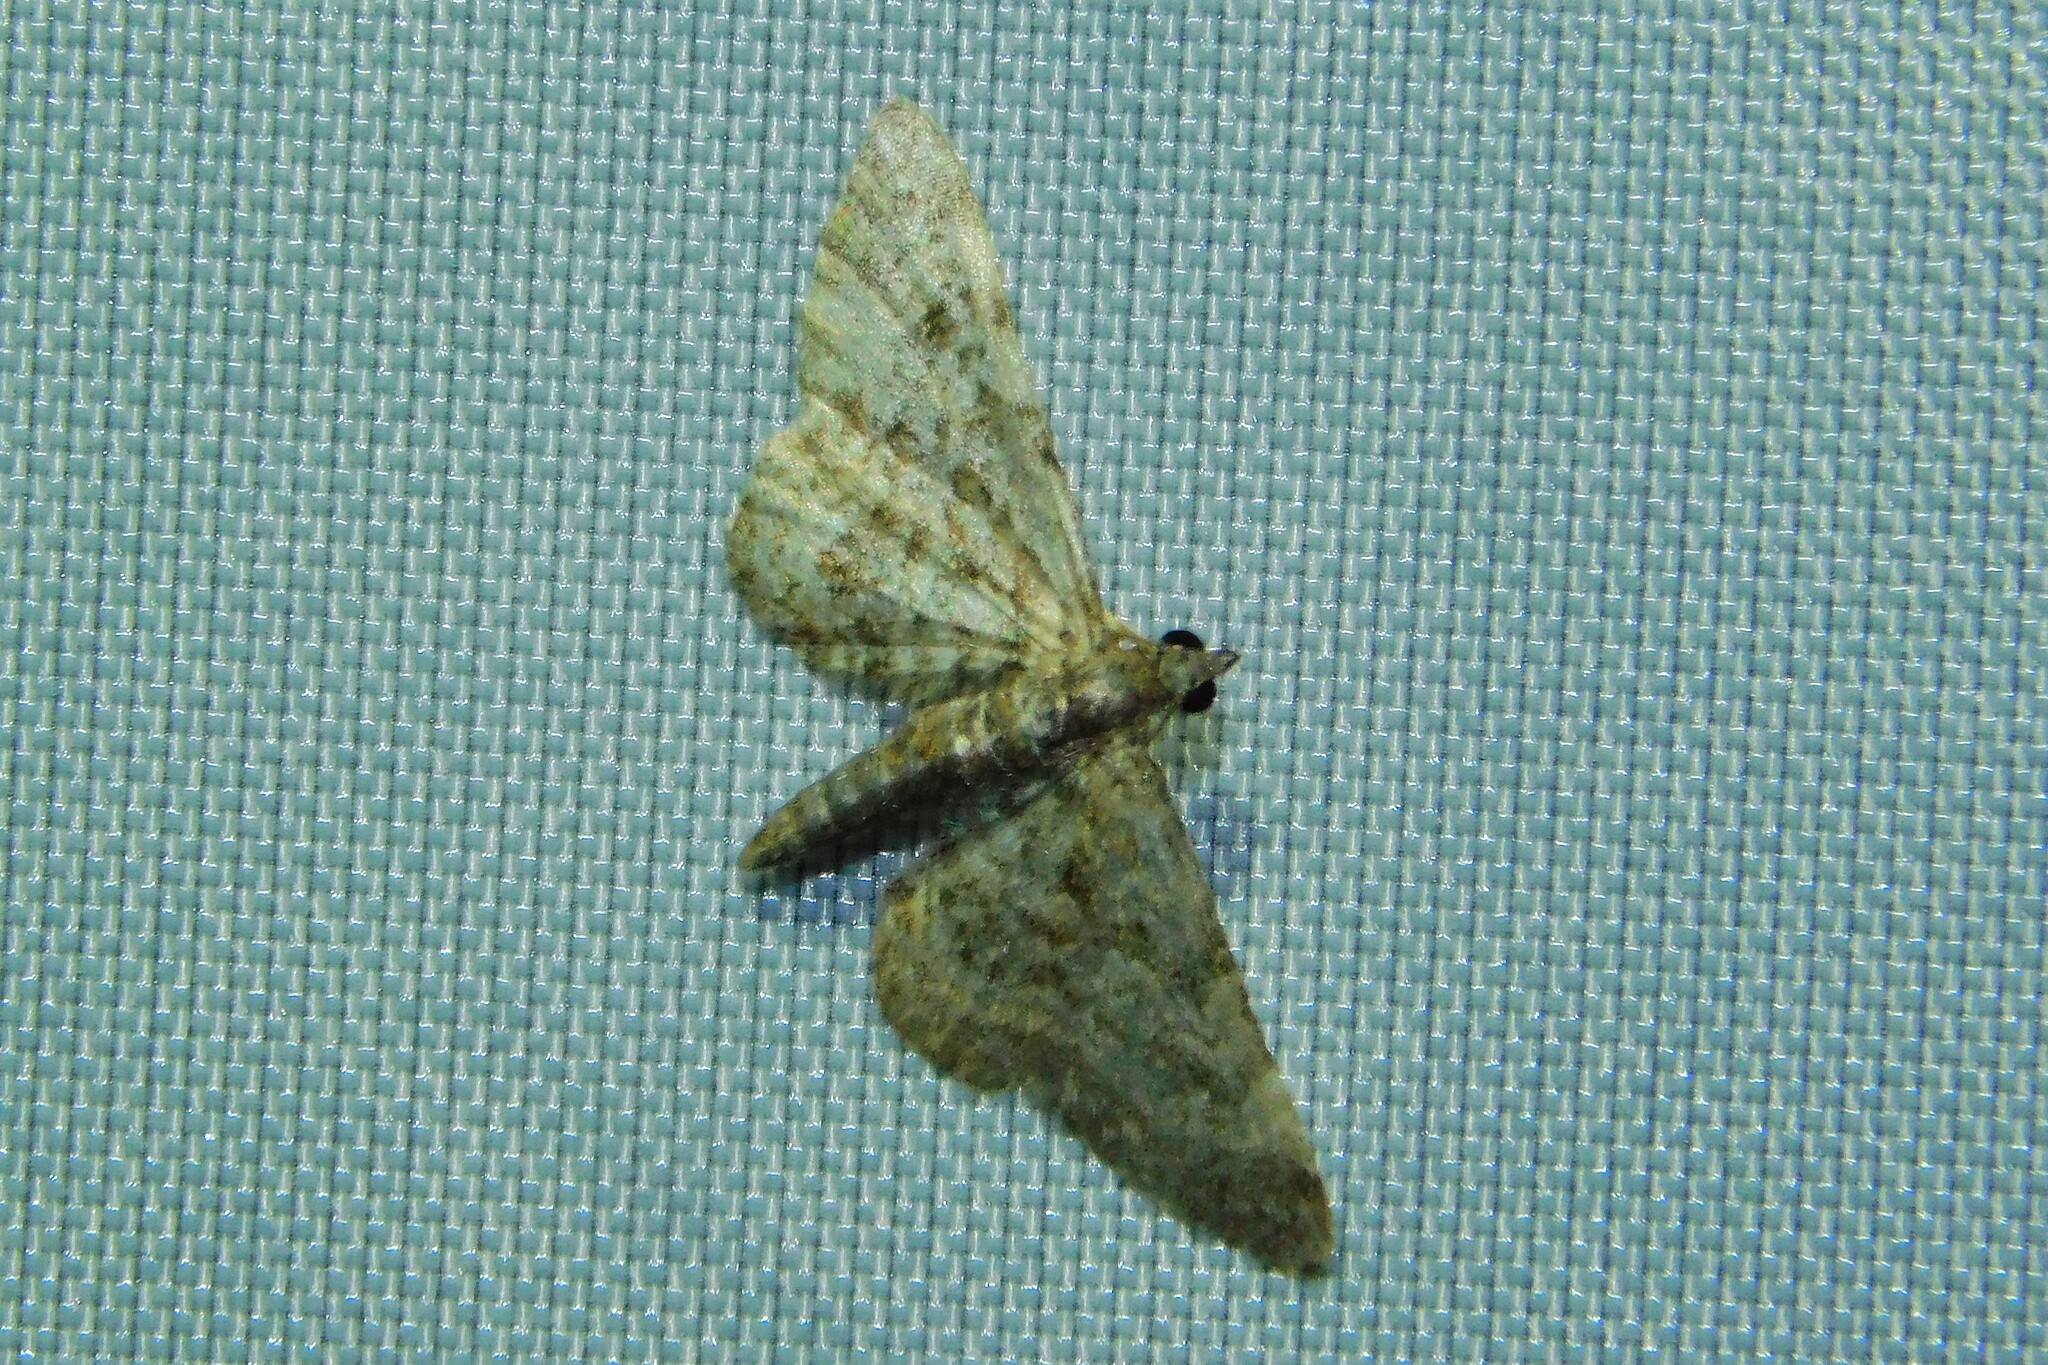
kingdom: Animalia
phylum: Arthropoda
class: Insecta
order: Lepidoptera
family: Geometridae
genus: Gymnoscelis
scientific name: Gymnoscelis rufifasciata
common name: Double-striped pug
